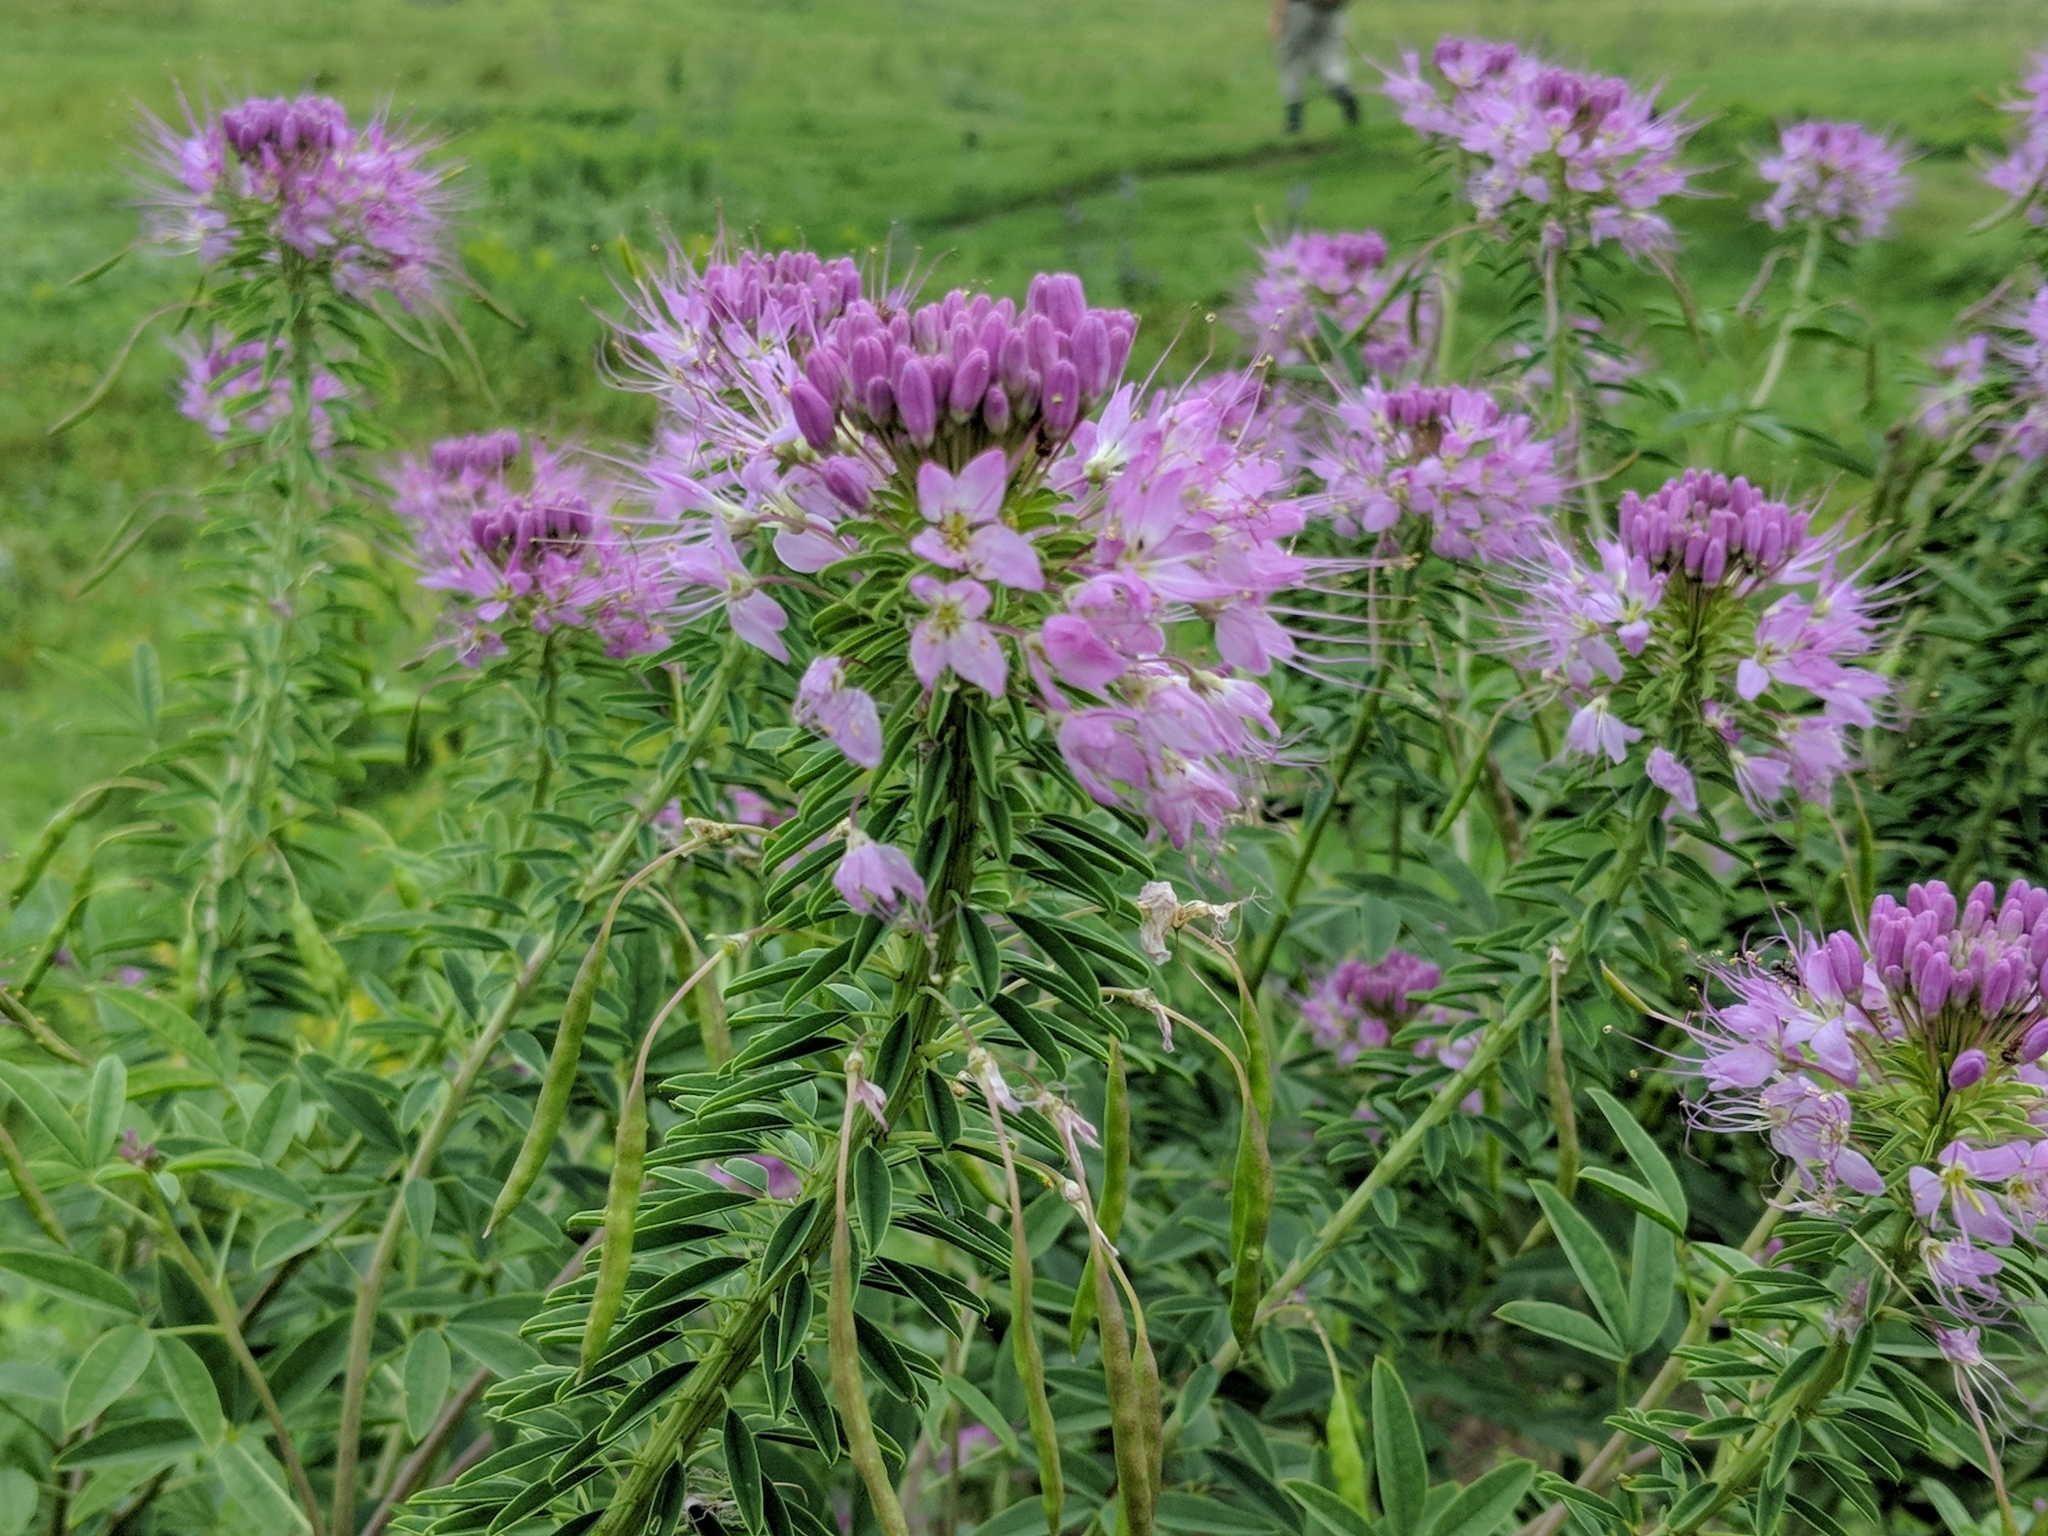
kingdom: Plantae
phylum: Tracheophyta
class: Magnoliopsida
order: Brassicales
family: Cleomaceae
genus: Cleomella
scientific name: Cleomella serrulata
